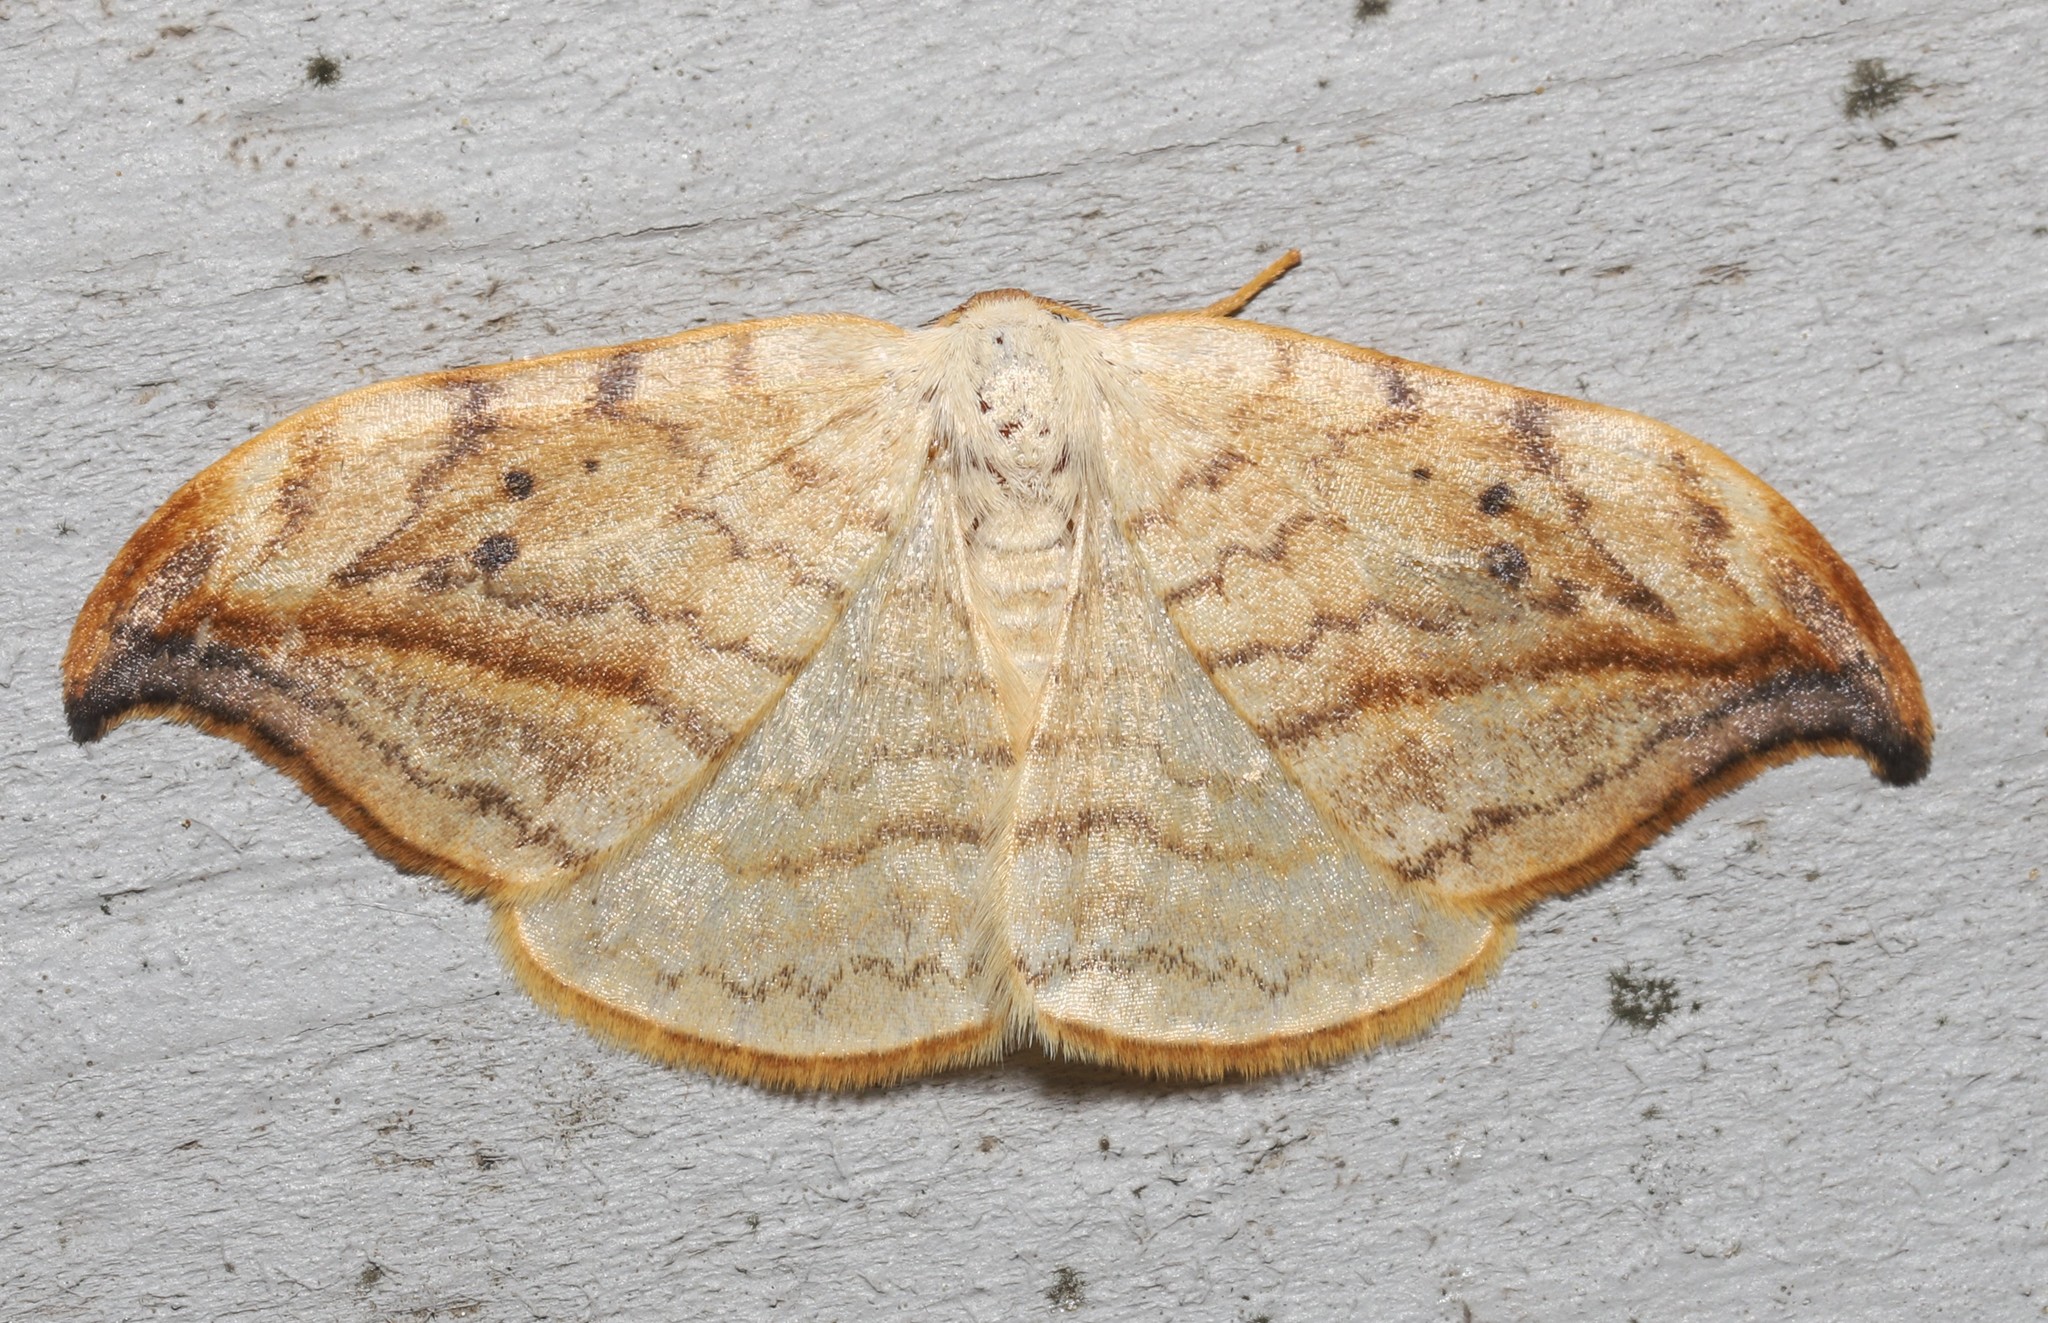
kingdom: Animalia
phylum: Arthropoda
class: Insecta
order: Lepidoptera
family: Drepanidae
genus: Drepana
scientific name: Drepana arcuata
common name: Arched hooktip moth
